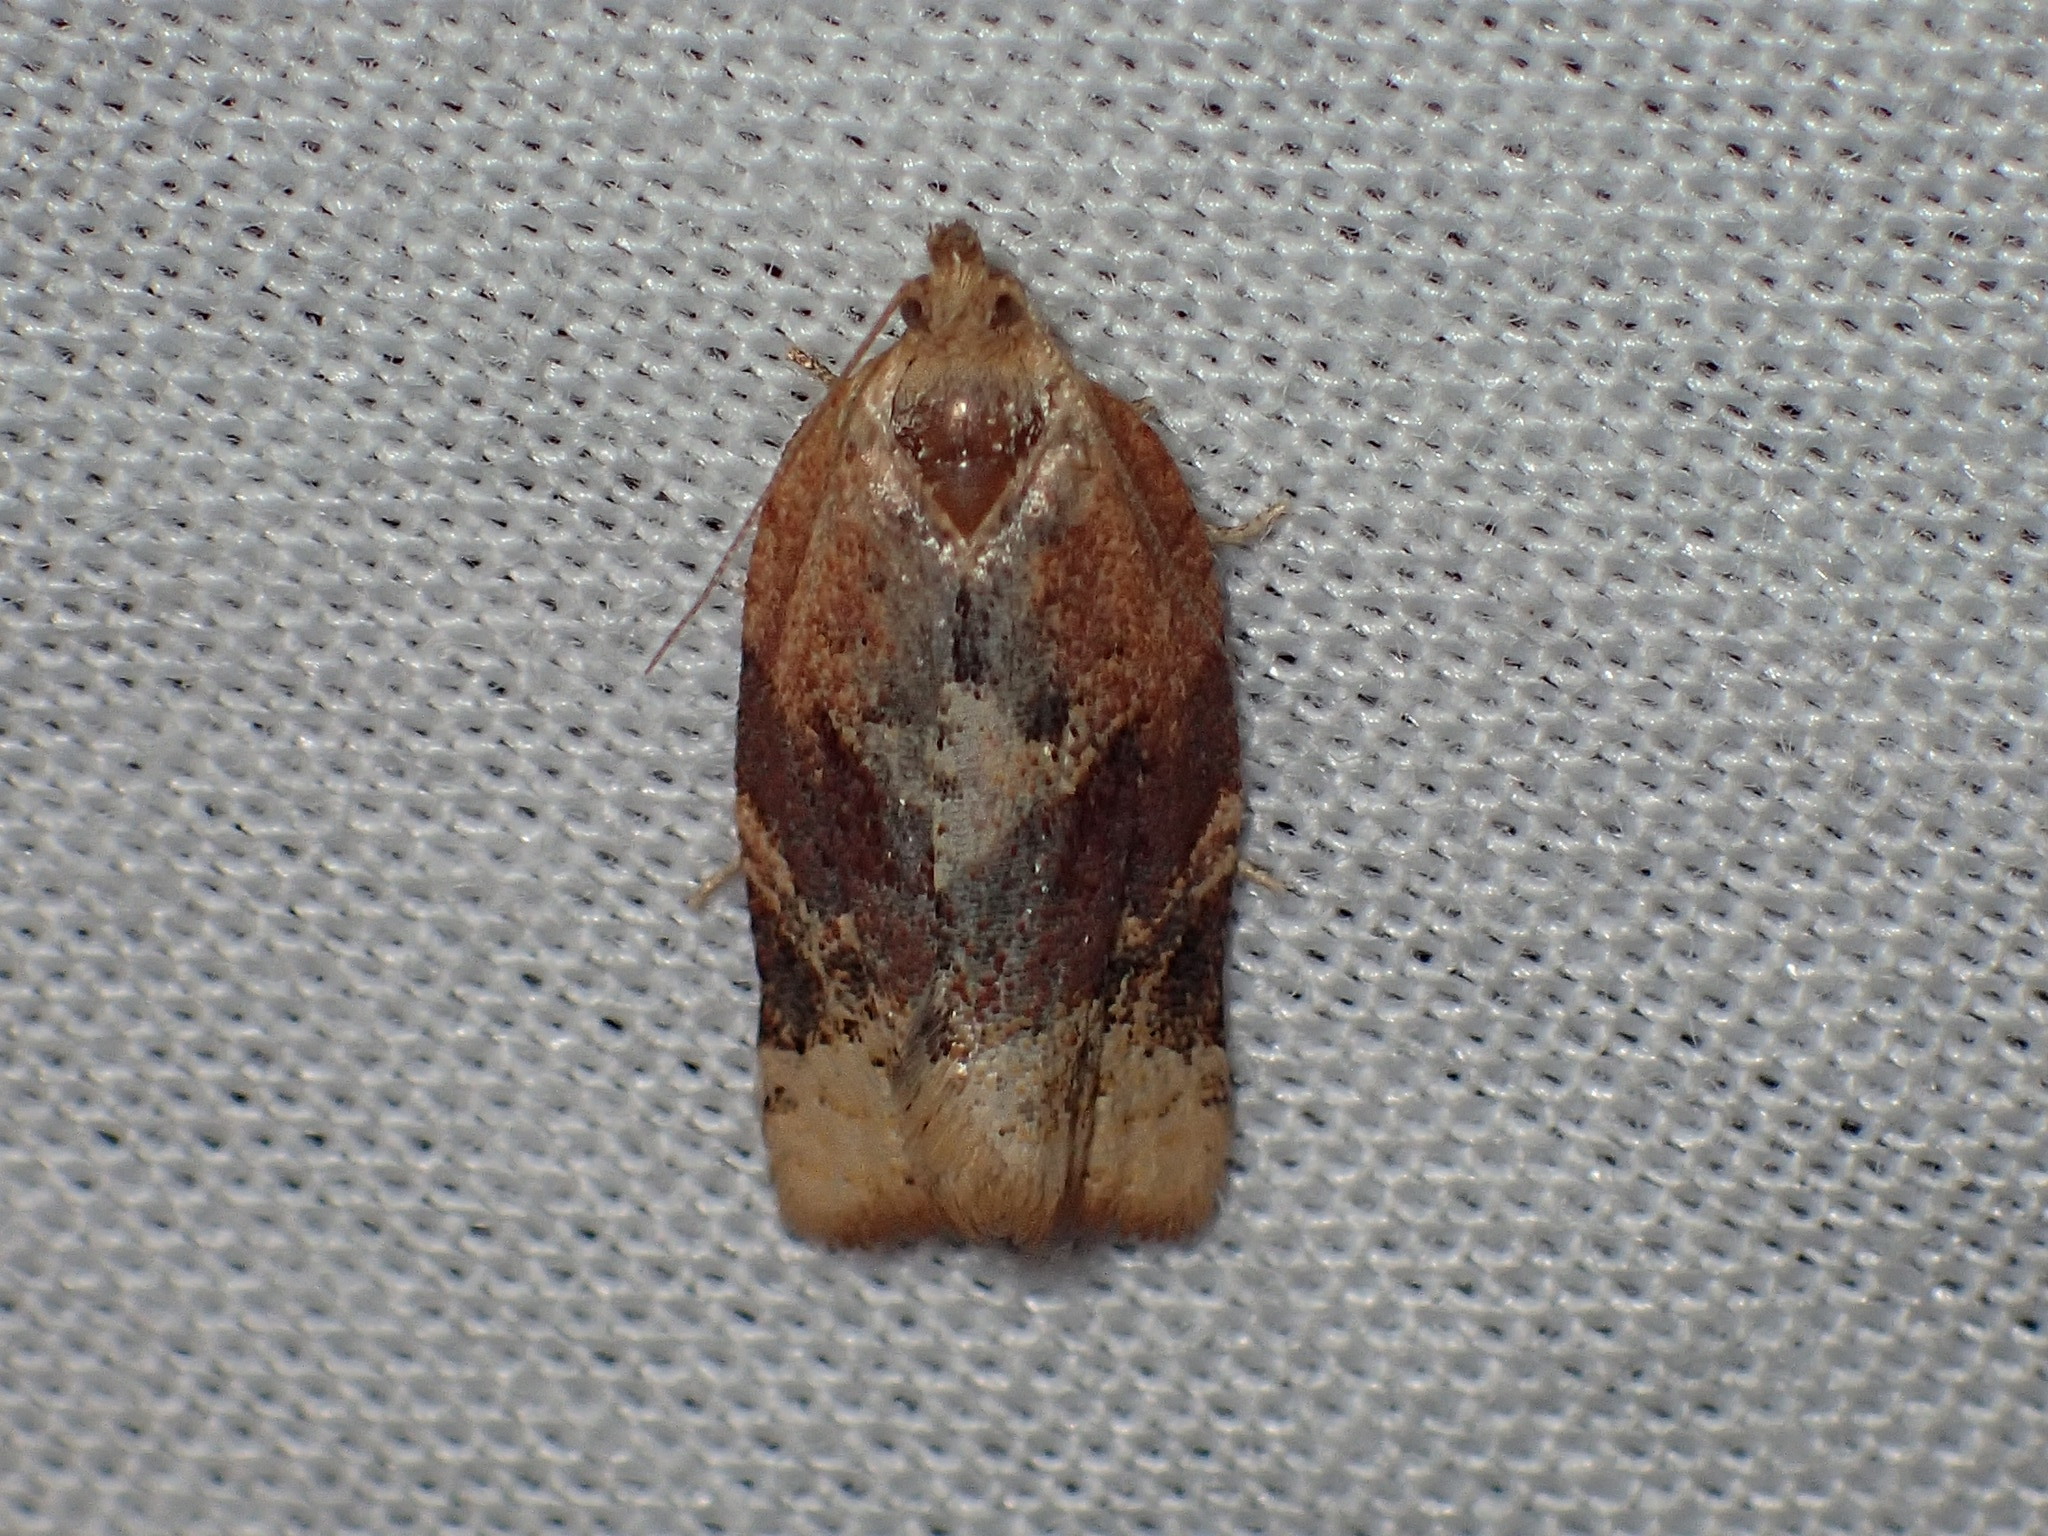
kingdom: Animalia
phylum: Arthropoda
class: Insecta
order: Lepidoptera
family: Tortricidae
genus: Argyrotaenia
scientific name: Argyrotaenia velutinana
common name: Red-banded leafroller moth
